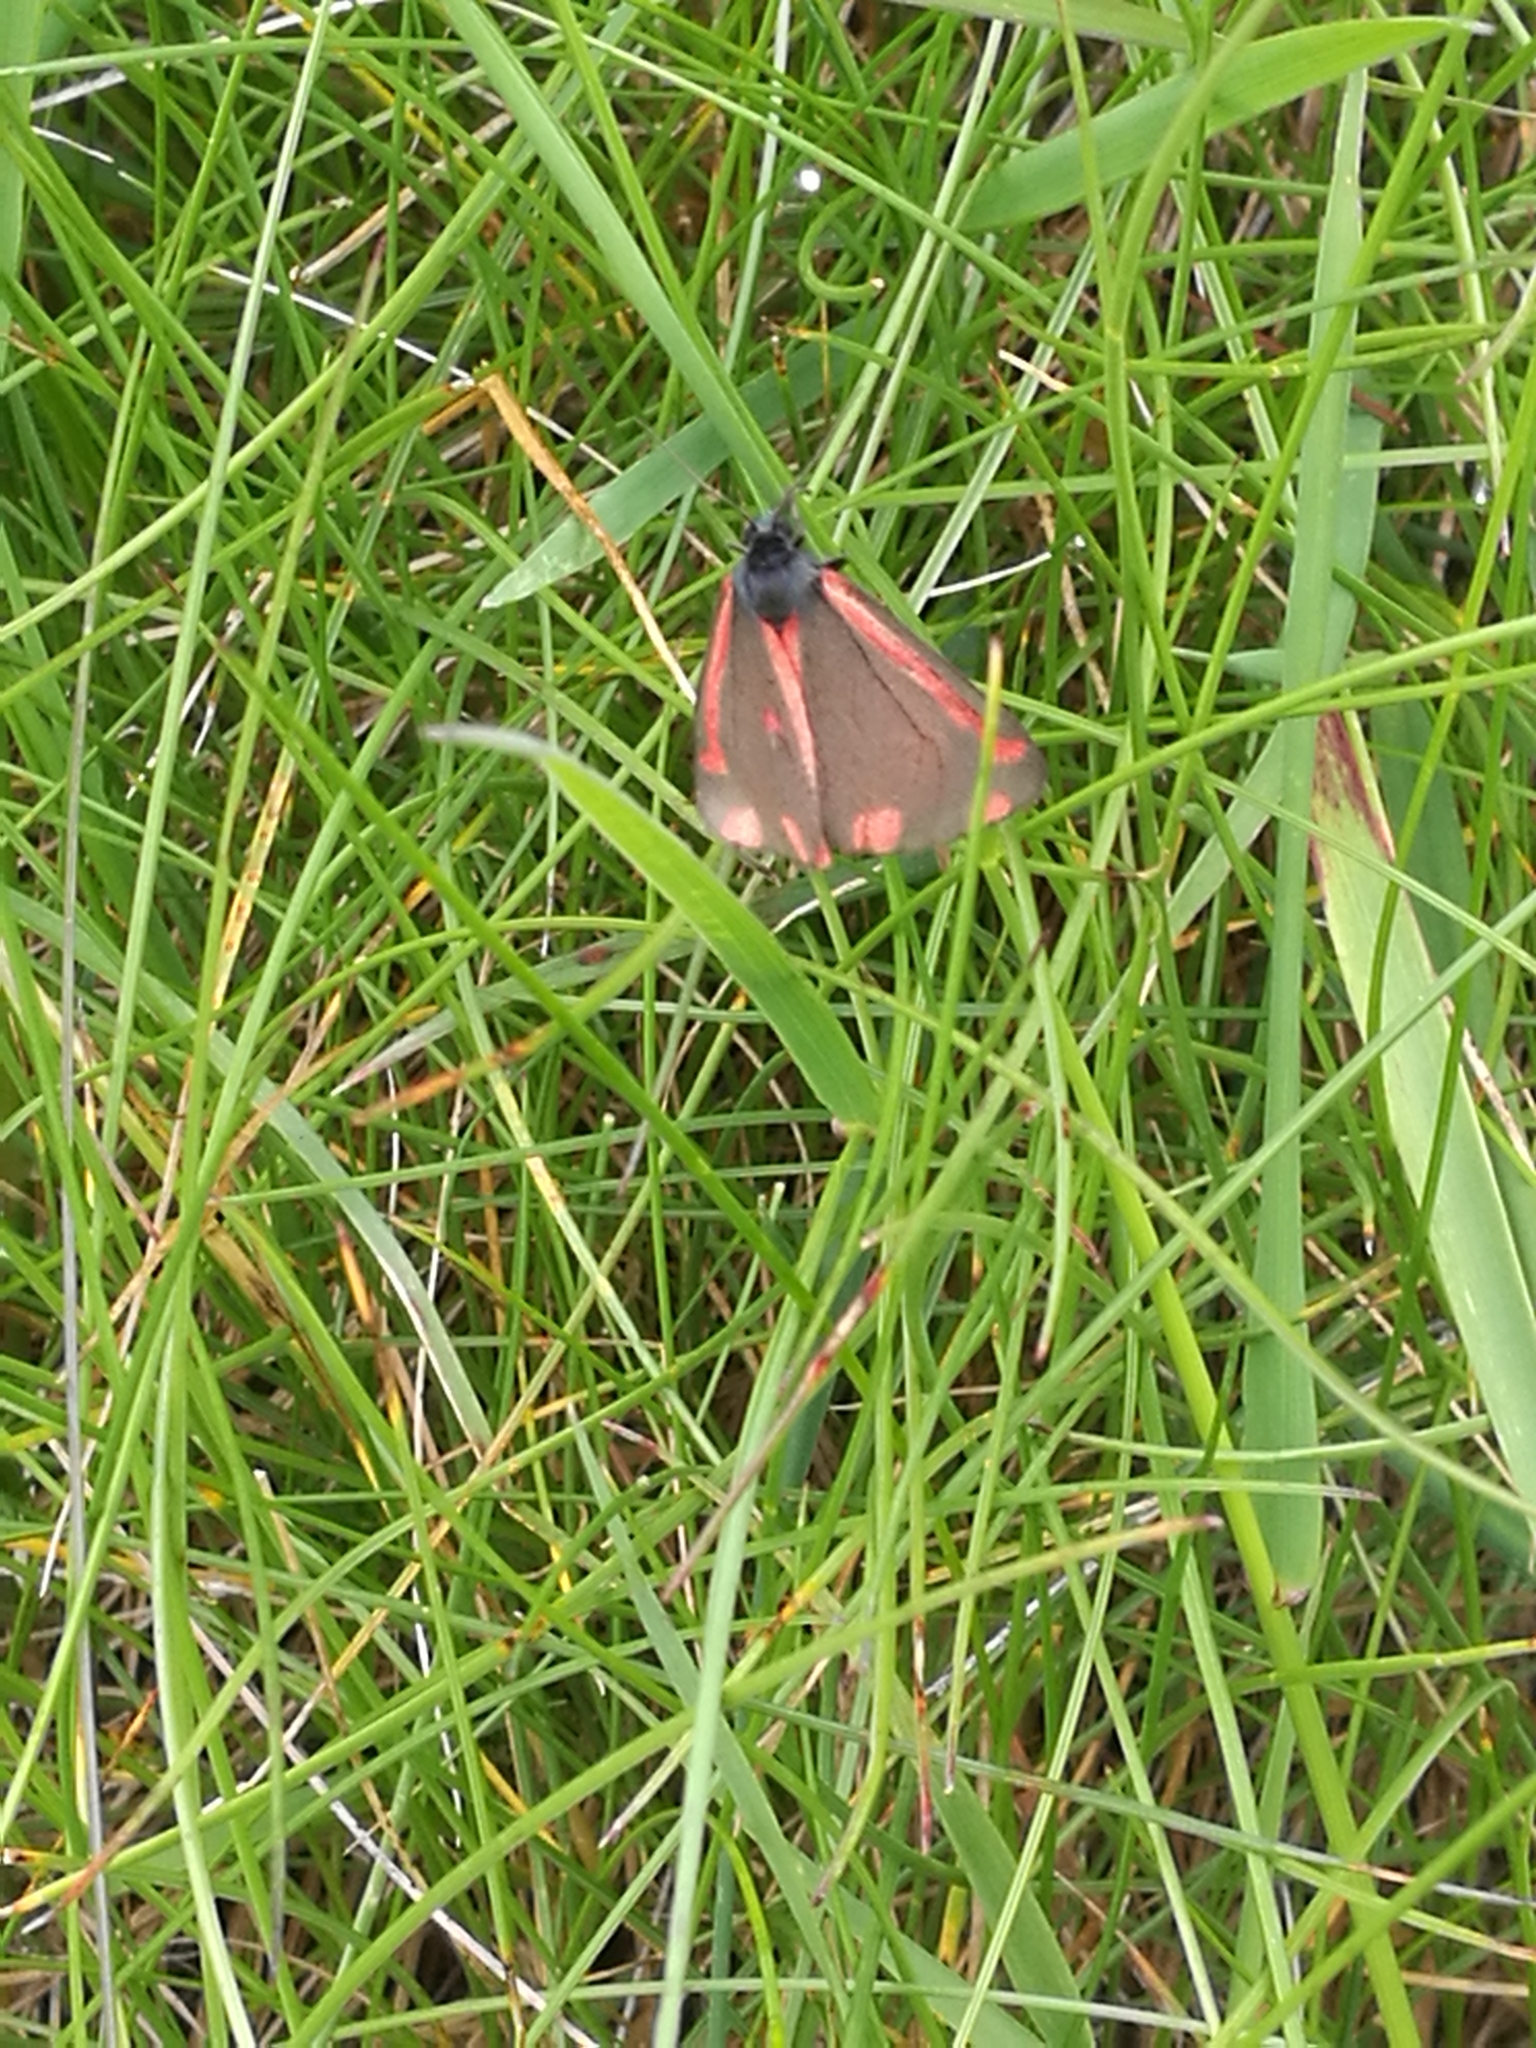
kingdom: Animalia
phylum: Arthropoda
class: Insecta
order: Lepidoptera
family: Erebidae
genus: Tyria
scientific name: Tyria jacobaeae
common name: Cinnabar
